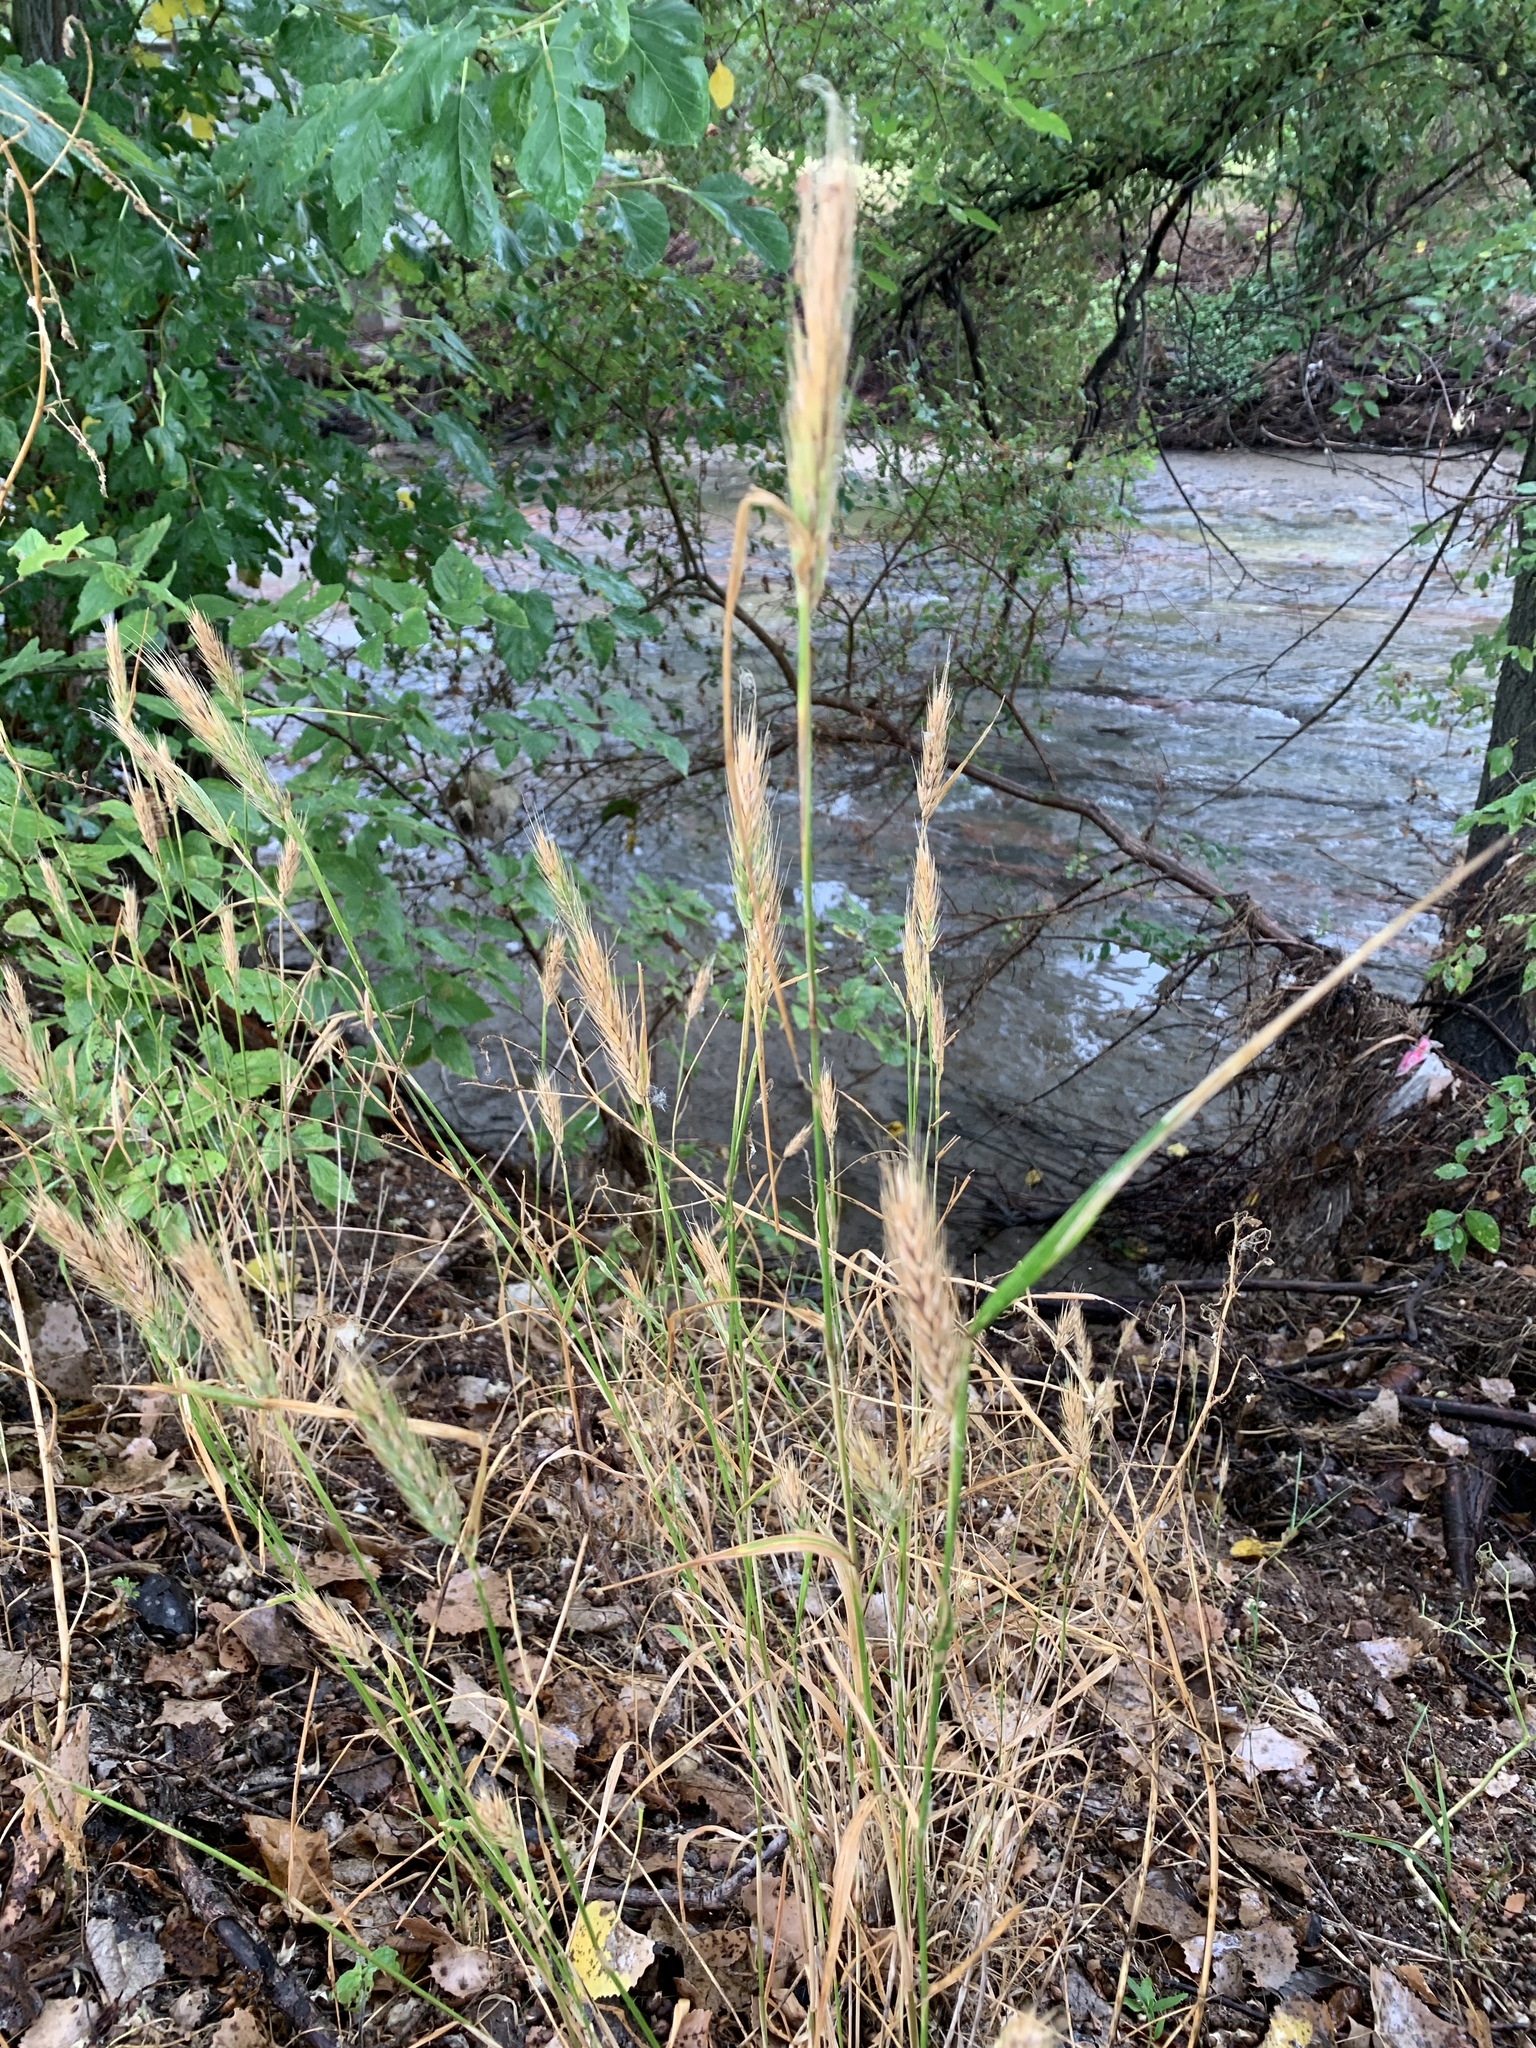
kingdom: Plantae
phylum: Tracheophyta
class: Liliopsida
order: Poales
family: Poaceae
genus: Elymus
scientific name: Elymus virginicus
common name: Common eastern wildrye
